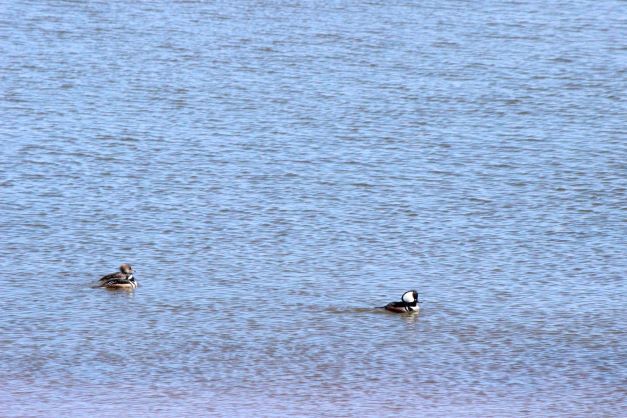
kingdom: Animalia
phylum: Chordata
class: Aves
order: Anseriformes
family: Anatidae
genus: Lophodytes
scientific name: Lophodytes cucullatus
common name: Hooded merganser
